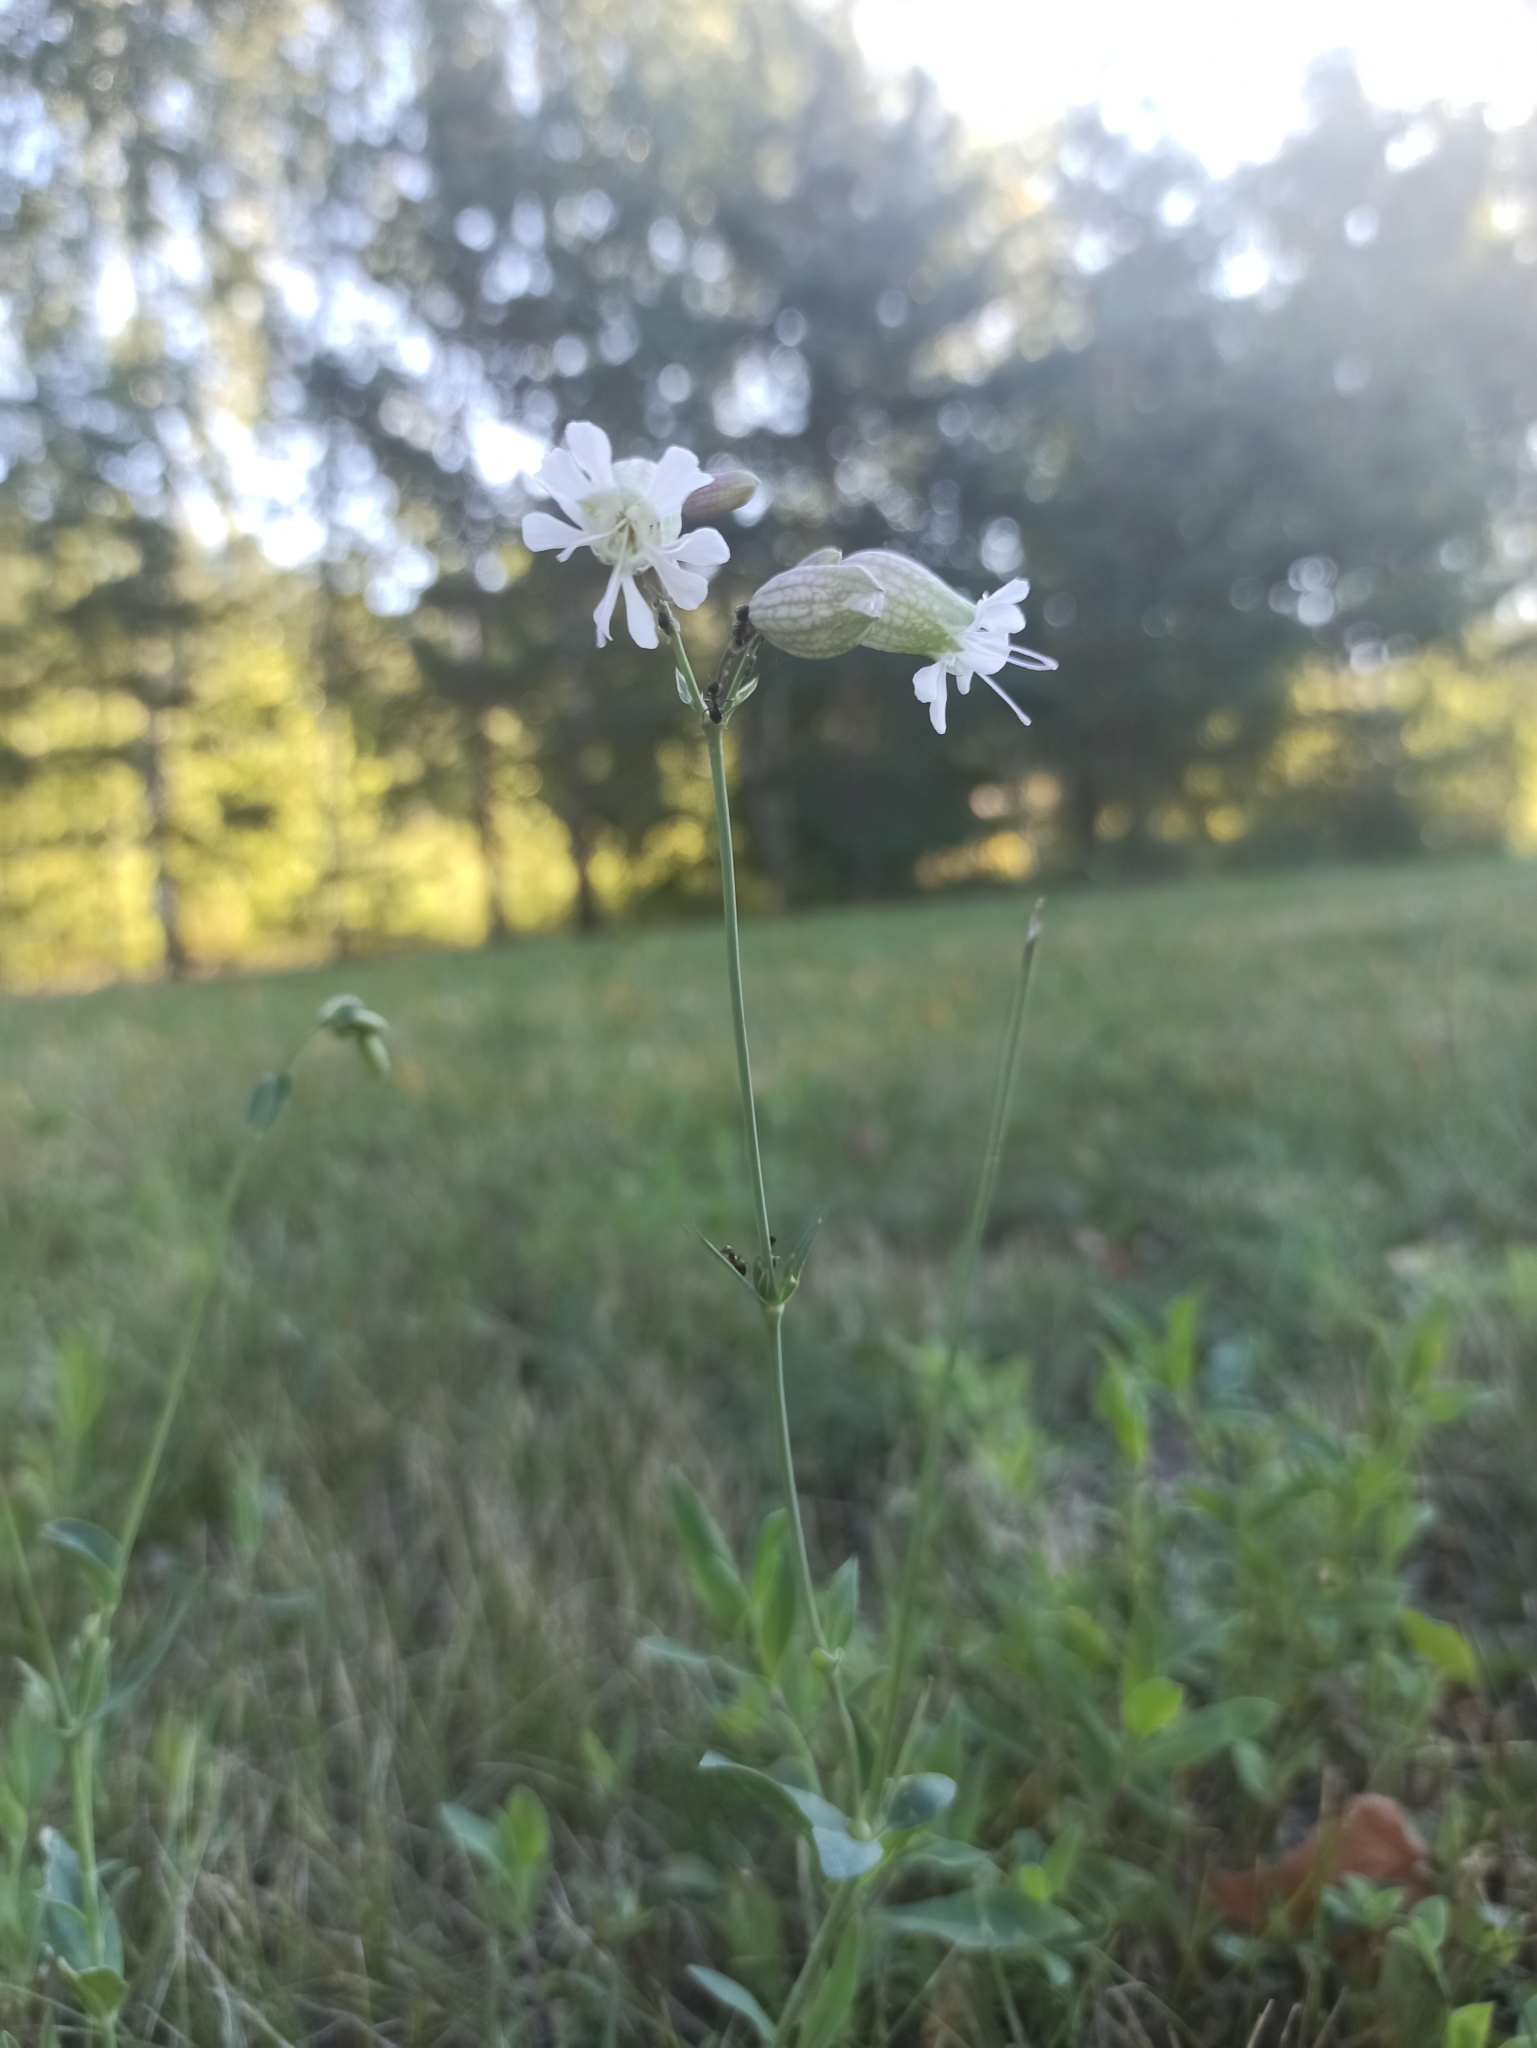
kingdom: Plantae
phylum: Tracheophyta
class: Magnoliopsida
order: Caryophyllales
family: Caryophyllaceae
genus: Silene
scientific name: Silene vulgaris
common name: Bladder campion
